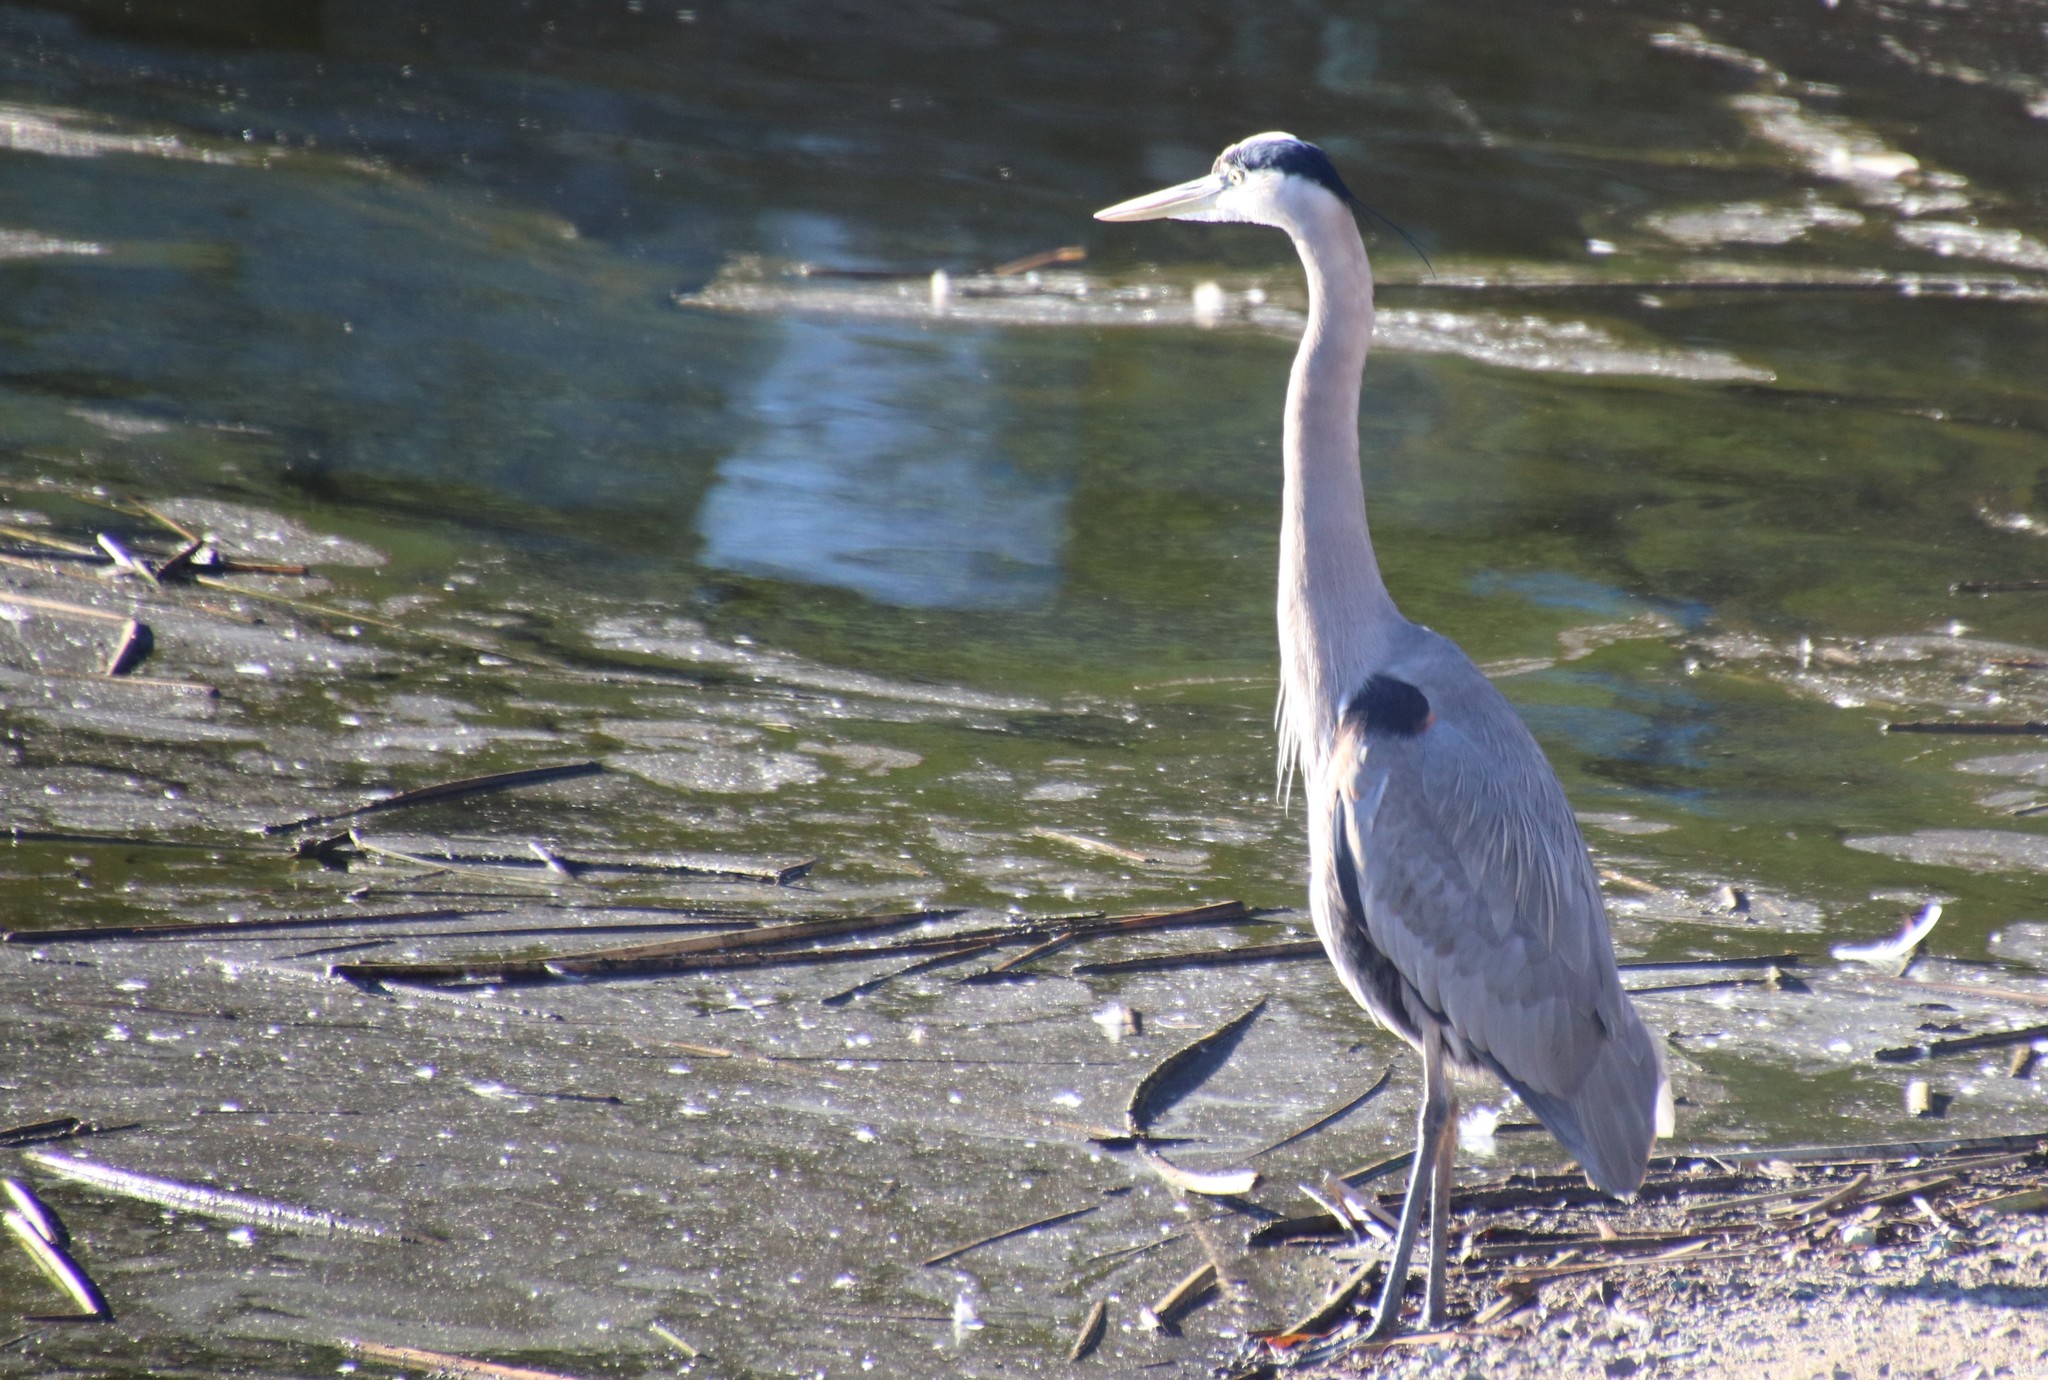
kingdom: Animalia
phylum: Chordata
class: Aves
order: Pelecaniformes
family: Ardeidae
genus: Ardea
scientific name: Ardea herodias
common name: Great blue heron
